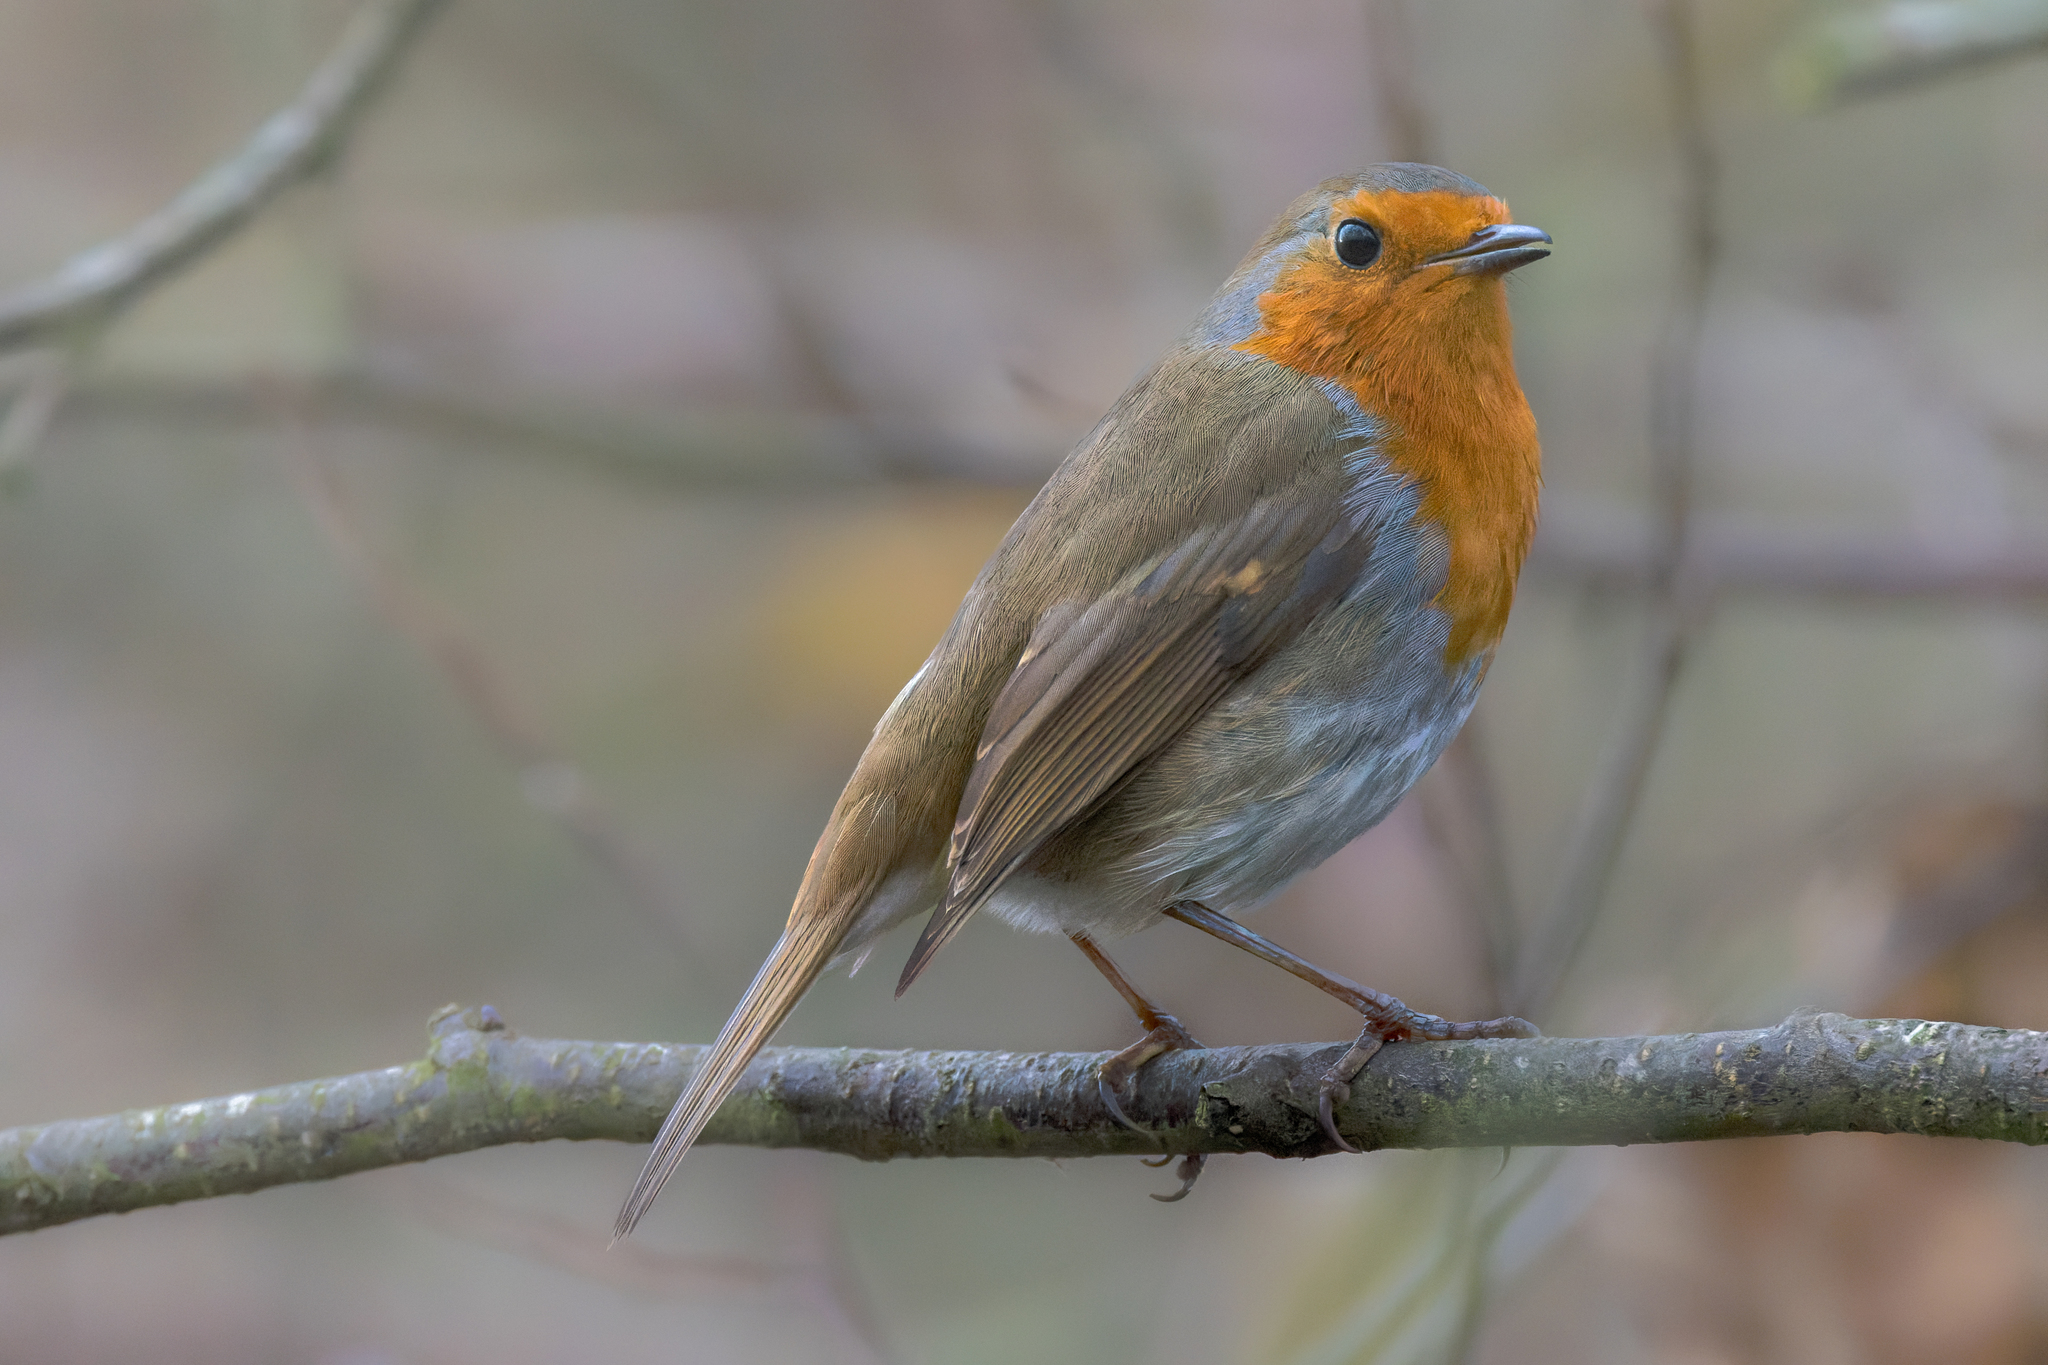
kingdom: Animalia
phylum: Chordata
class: Aves
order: Passeriformes
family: Muscicapidae
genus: Erithacus
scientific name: Erithacus rubecula
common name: European robin
